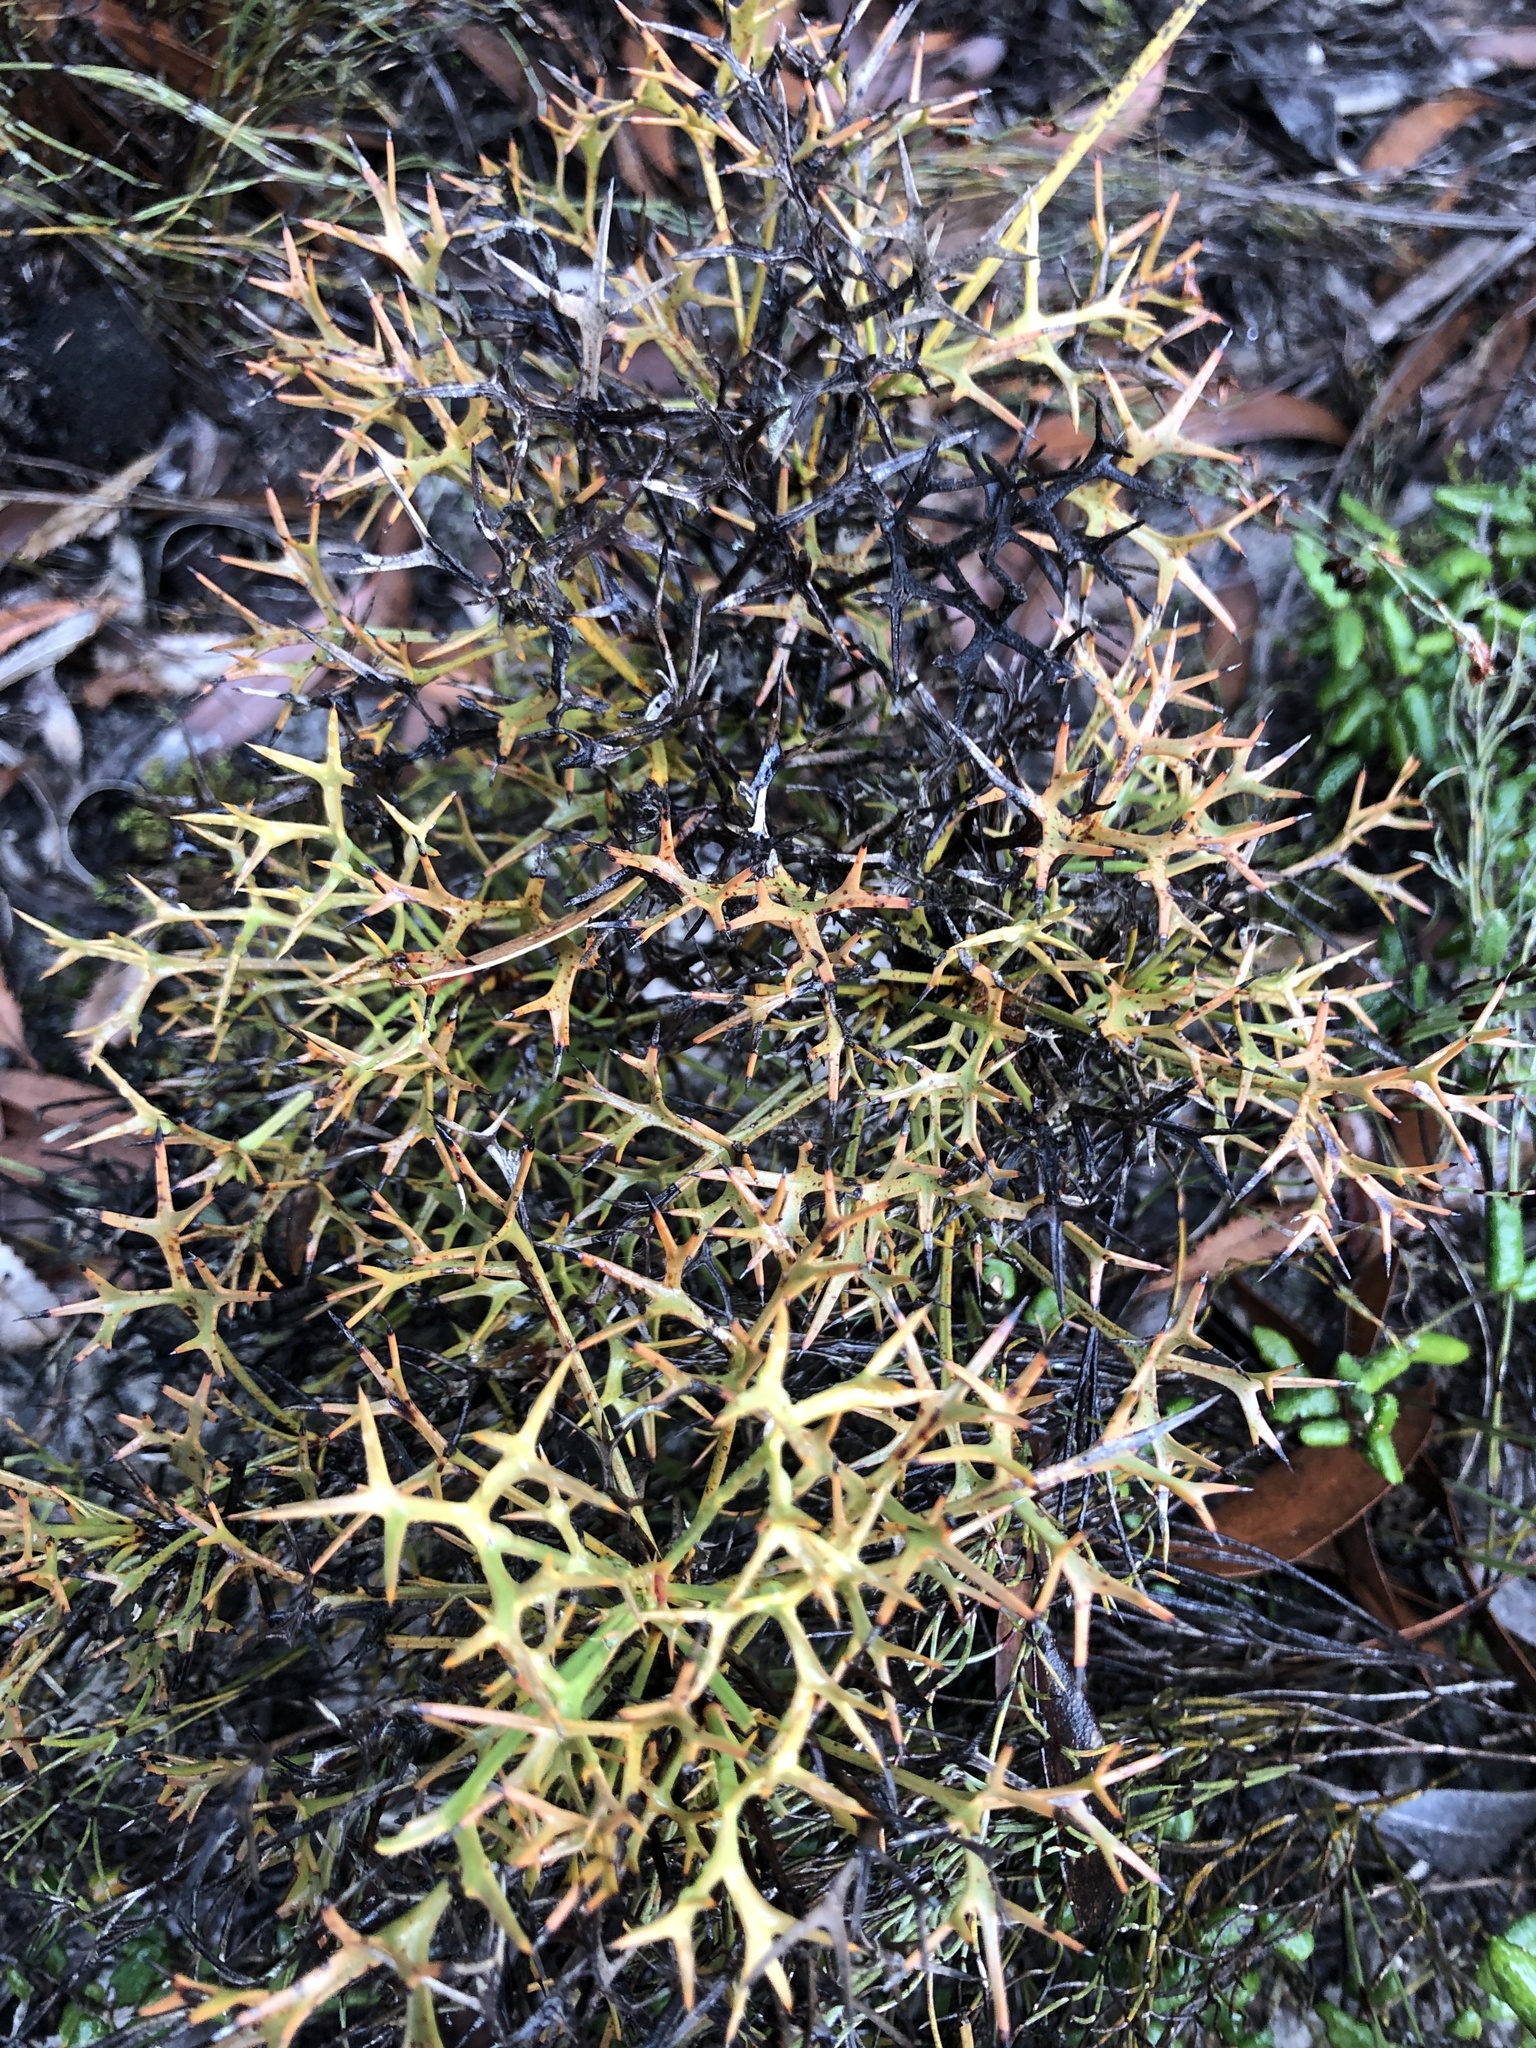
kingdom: Plantae
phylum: Tracheophyta
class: Magnoliopsida
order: Proteales
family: Proteaceae
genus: Isopogon
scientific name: Isopogon ceratophyllus
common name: Horny cone-bush
